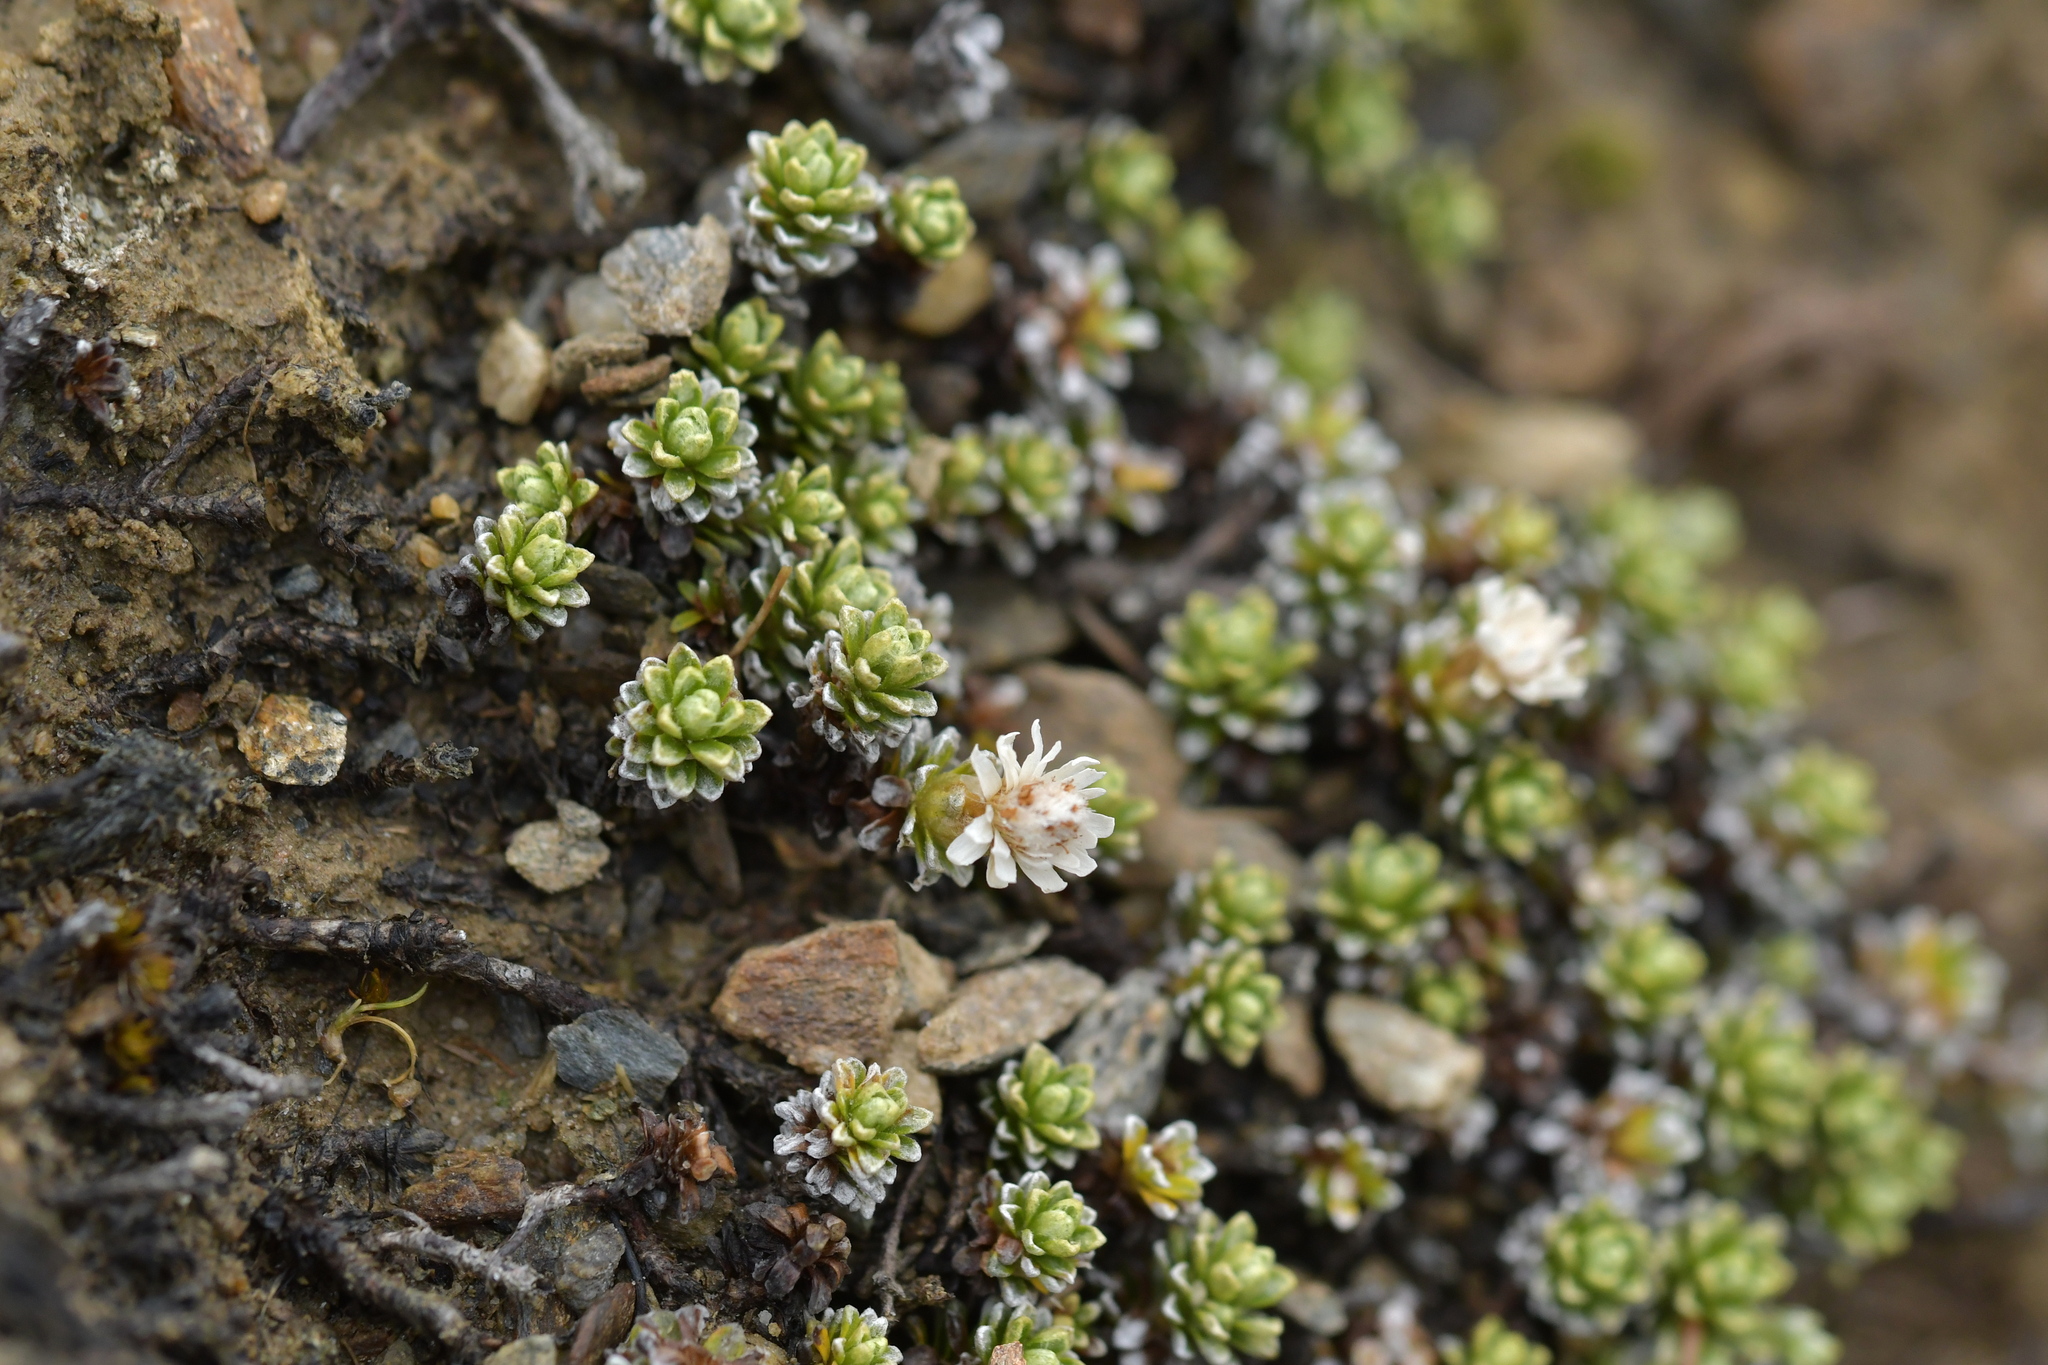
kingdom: Plantae
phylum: Tracheophyta
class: Magnoliopsida
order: Asterales
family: Asteraceae
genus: Raoulia
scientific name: Raoulia subsericea
